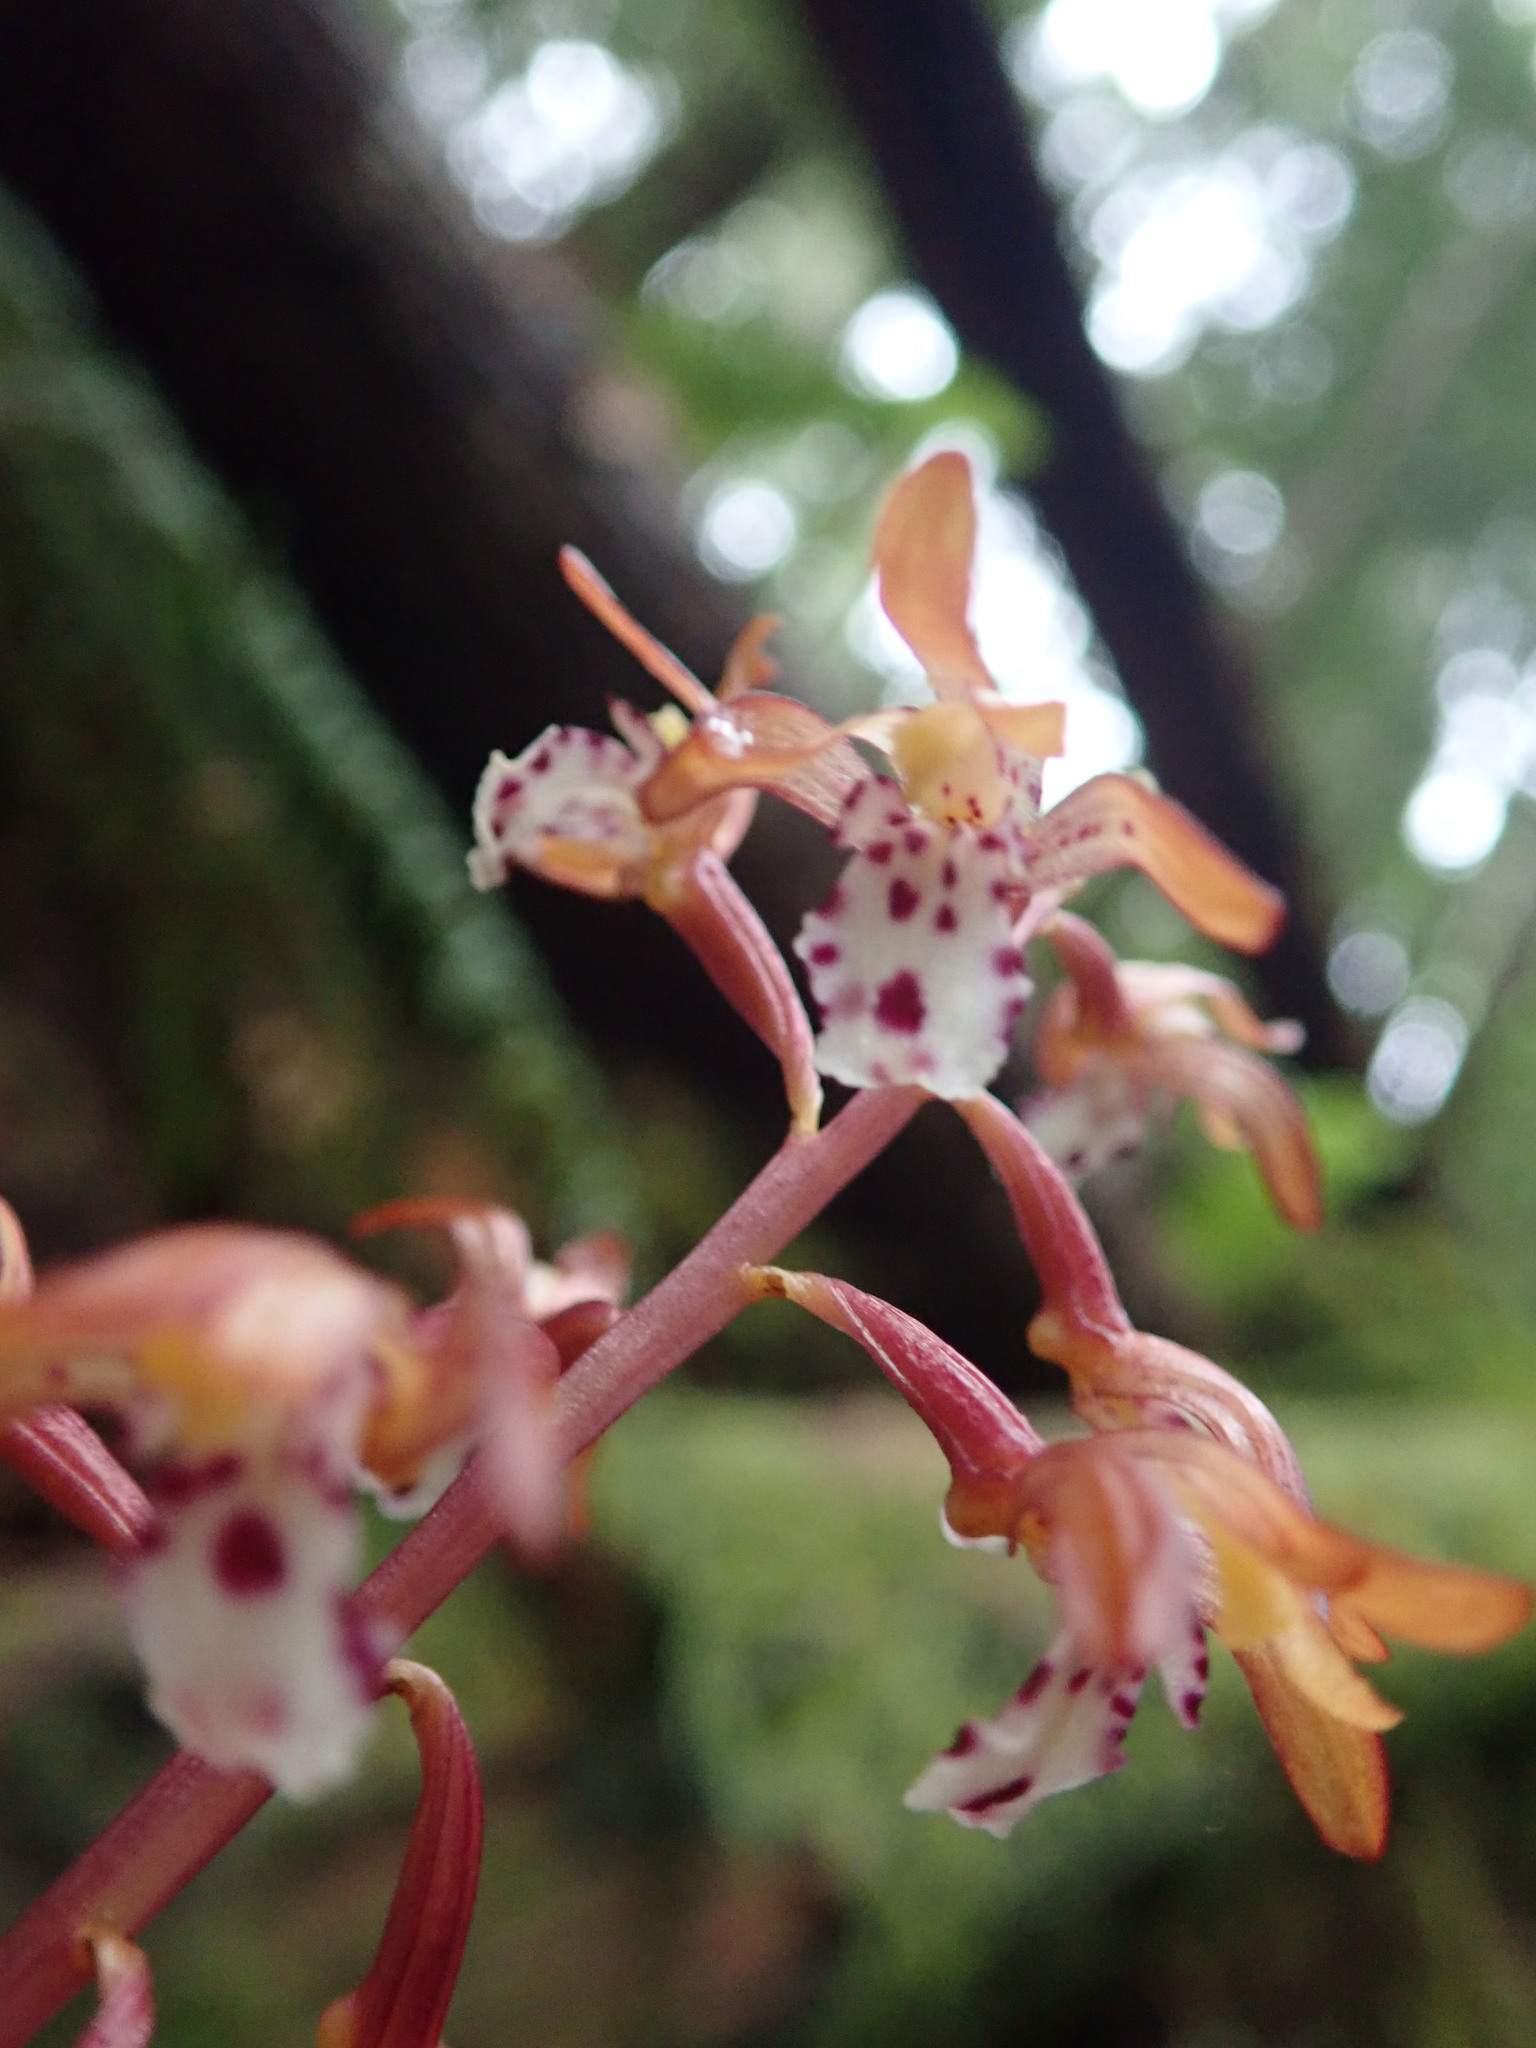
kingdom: Plantae
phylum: Tracheophyta
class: Liliopsida
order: Asparagales
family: Orchidaceae
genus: Corallorhiza
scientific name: Corallorhiza maculata
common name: Spotted coralroot
